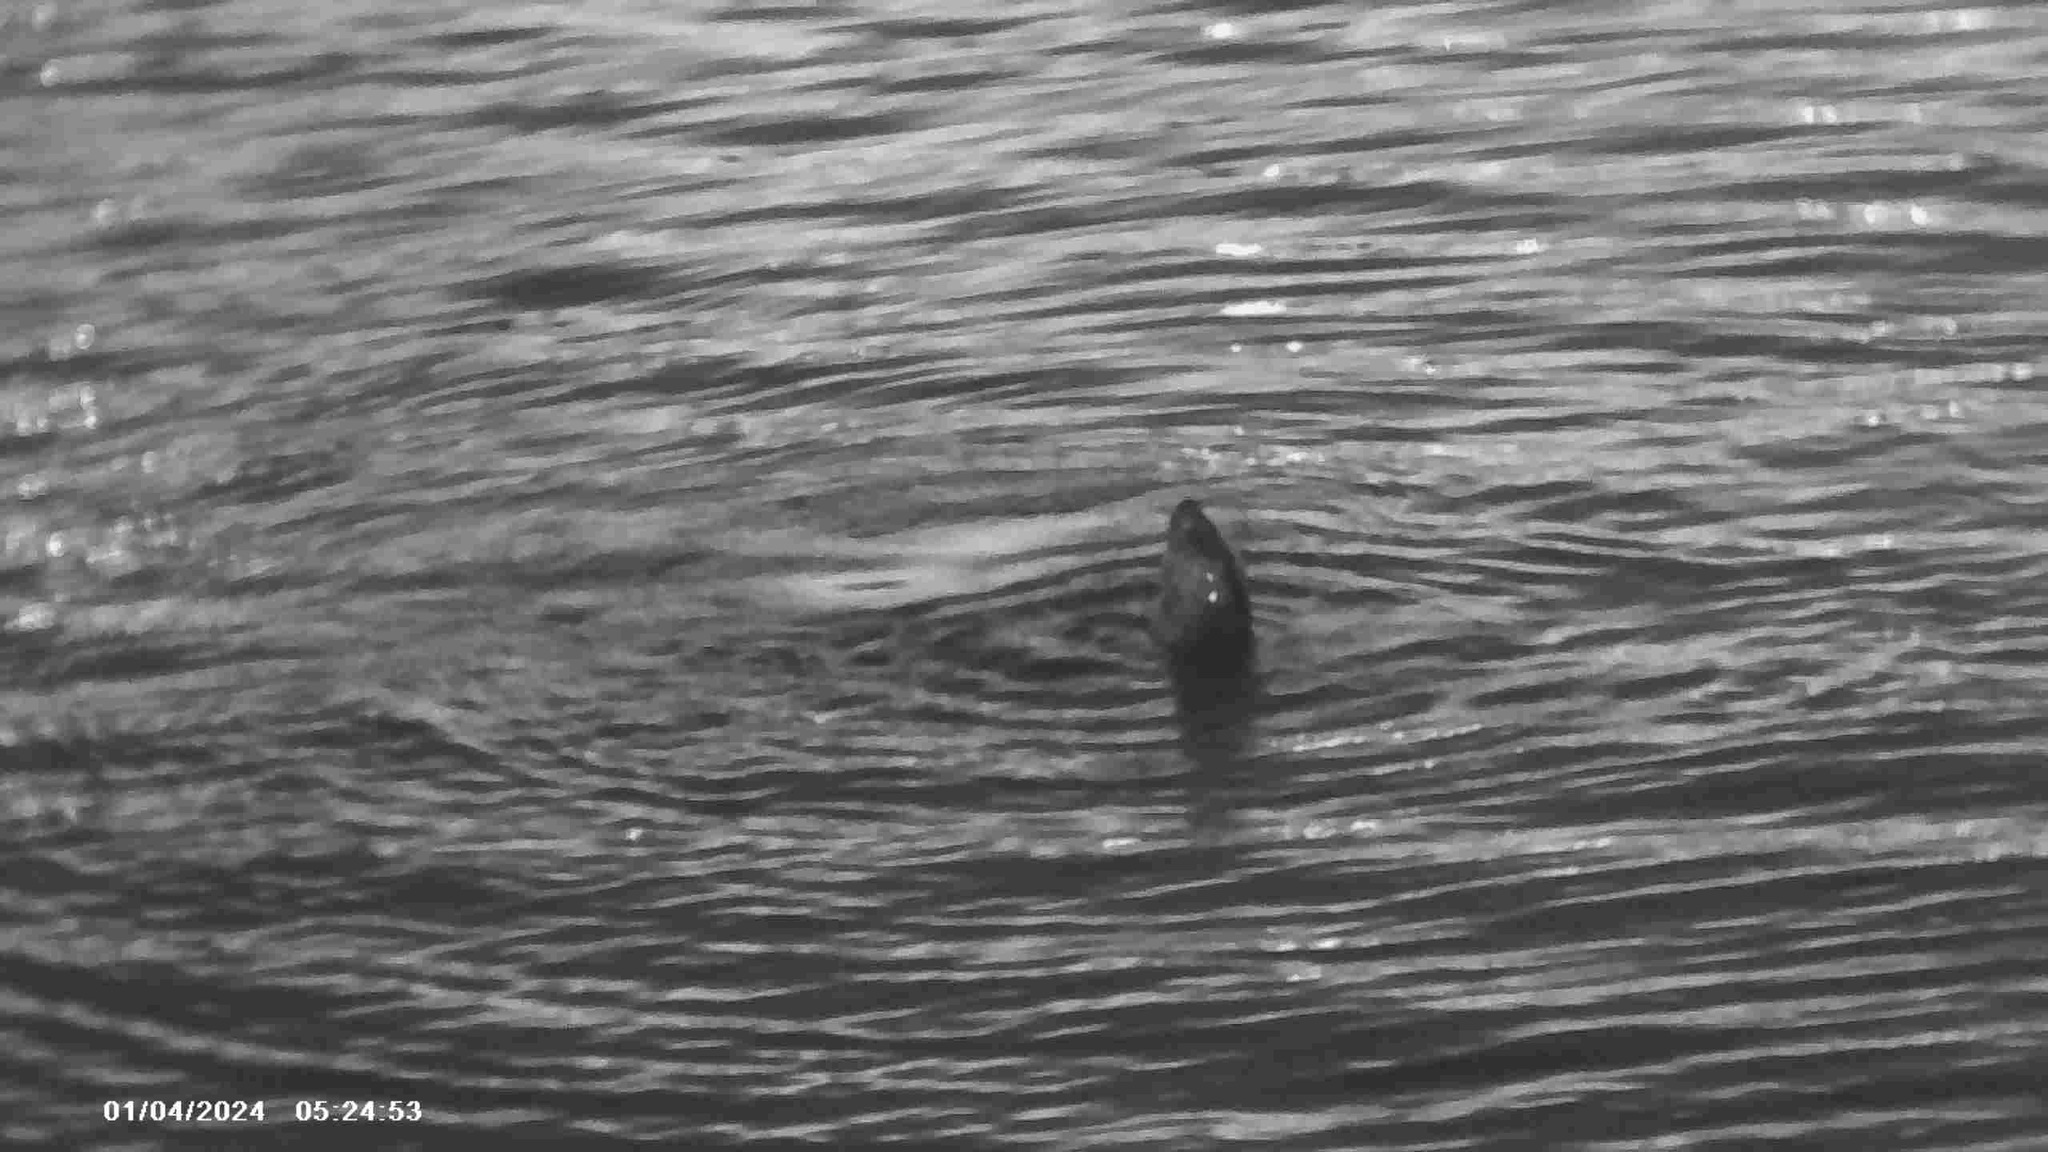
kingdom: Animalia
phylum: Chordata
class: Mammalia
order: Carnivora
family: Phocidae
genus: Phoca
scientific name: Phoca vitulina
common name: Harbor seal
